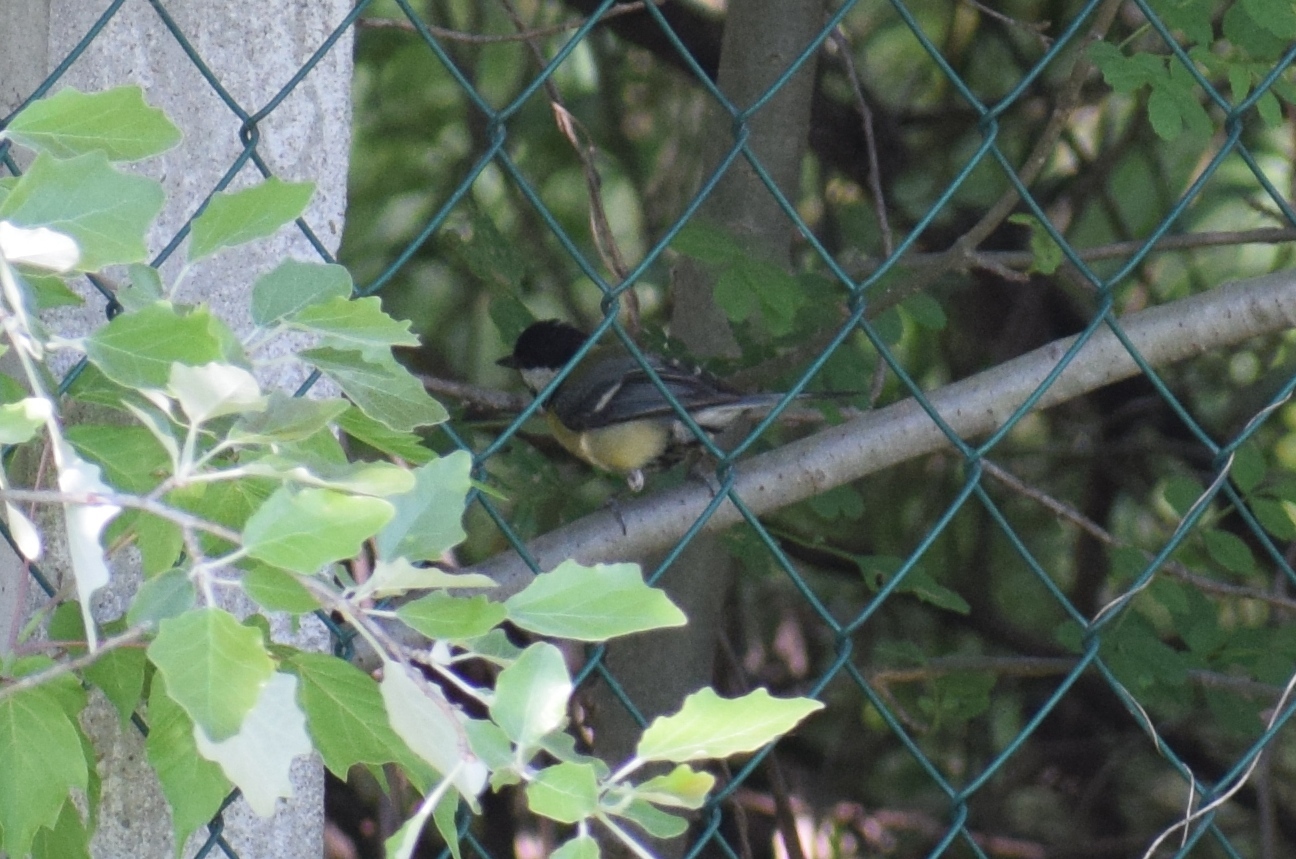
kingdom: Animalia
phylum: Chordata
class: Aves
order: Passeriformes
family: Paridae
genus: Parus
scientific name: Parus major
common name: Great tit
